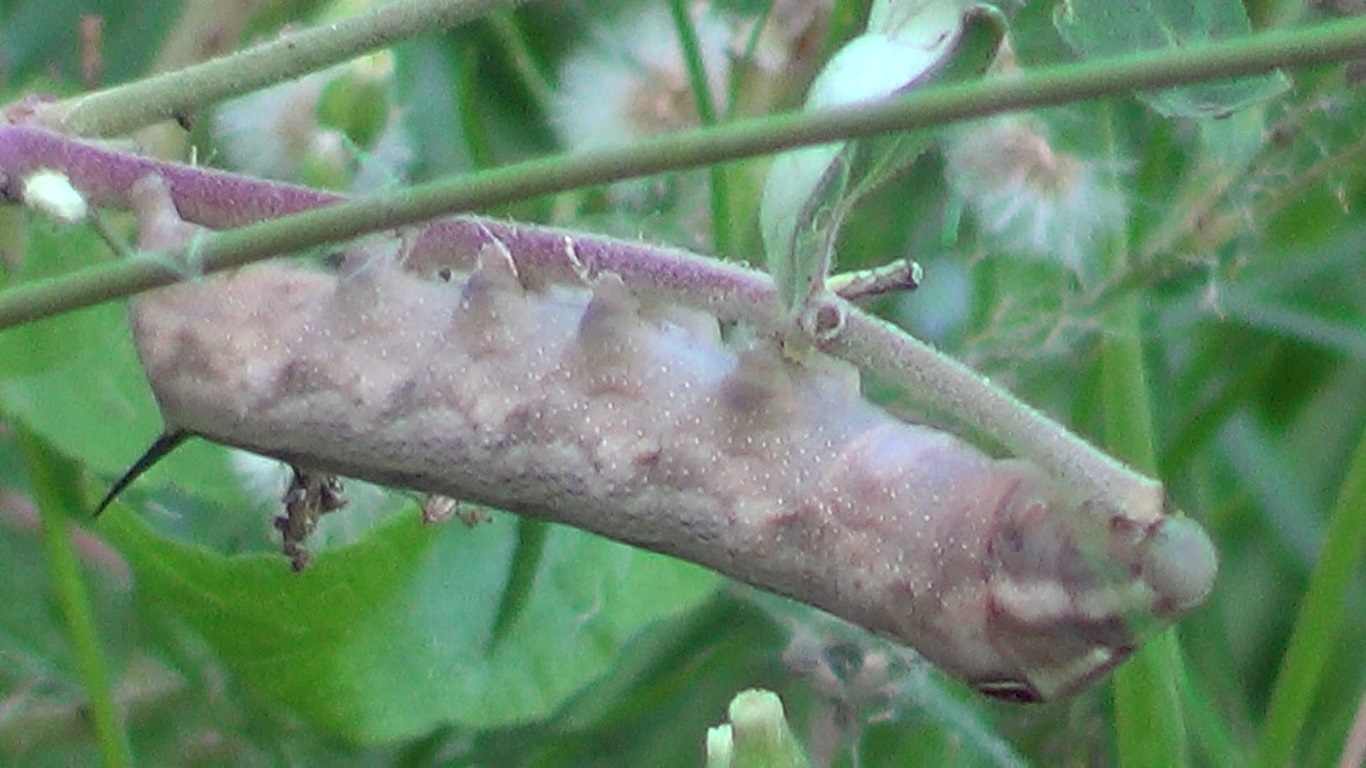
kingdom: Animalia
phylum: Arthropoda
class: Insecta
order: Lepidoptera
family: Sphingidae
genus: Hippotion
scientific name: Hippotion celerio
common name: Silver-striped hawk-moth
